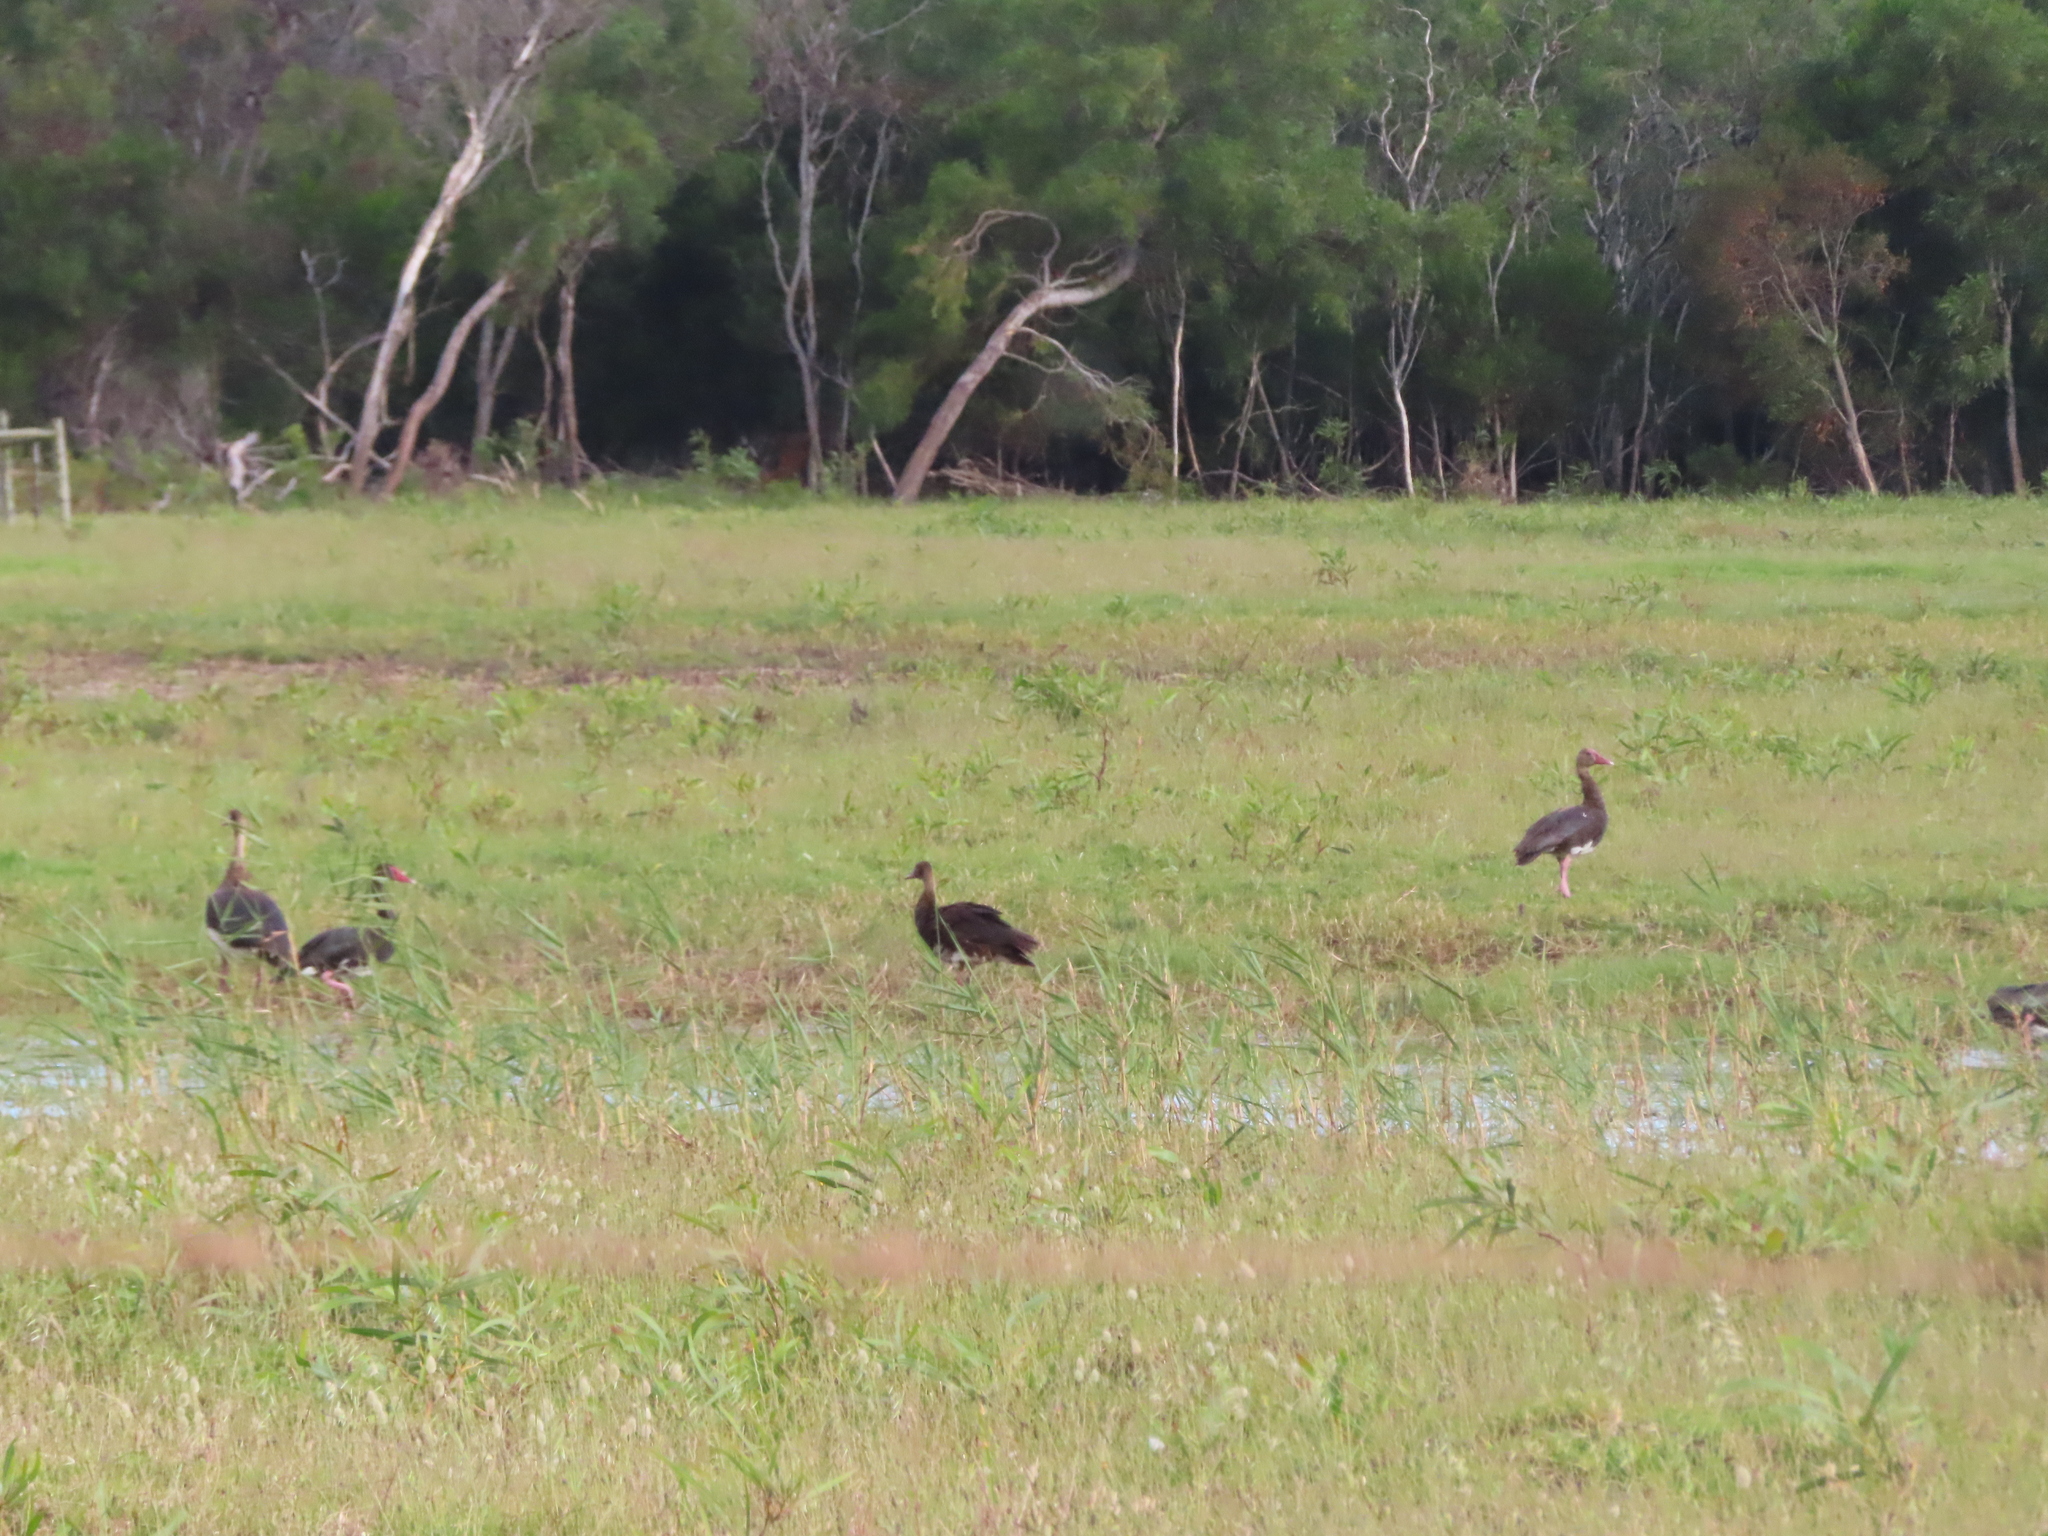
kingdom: Animalia
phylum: Chordata
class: Aves
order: Anseriformes
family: Anatidae
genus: Plectropterus
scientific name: Plectropterus gambensis
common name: Spur-winged goose
